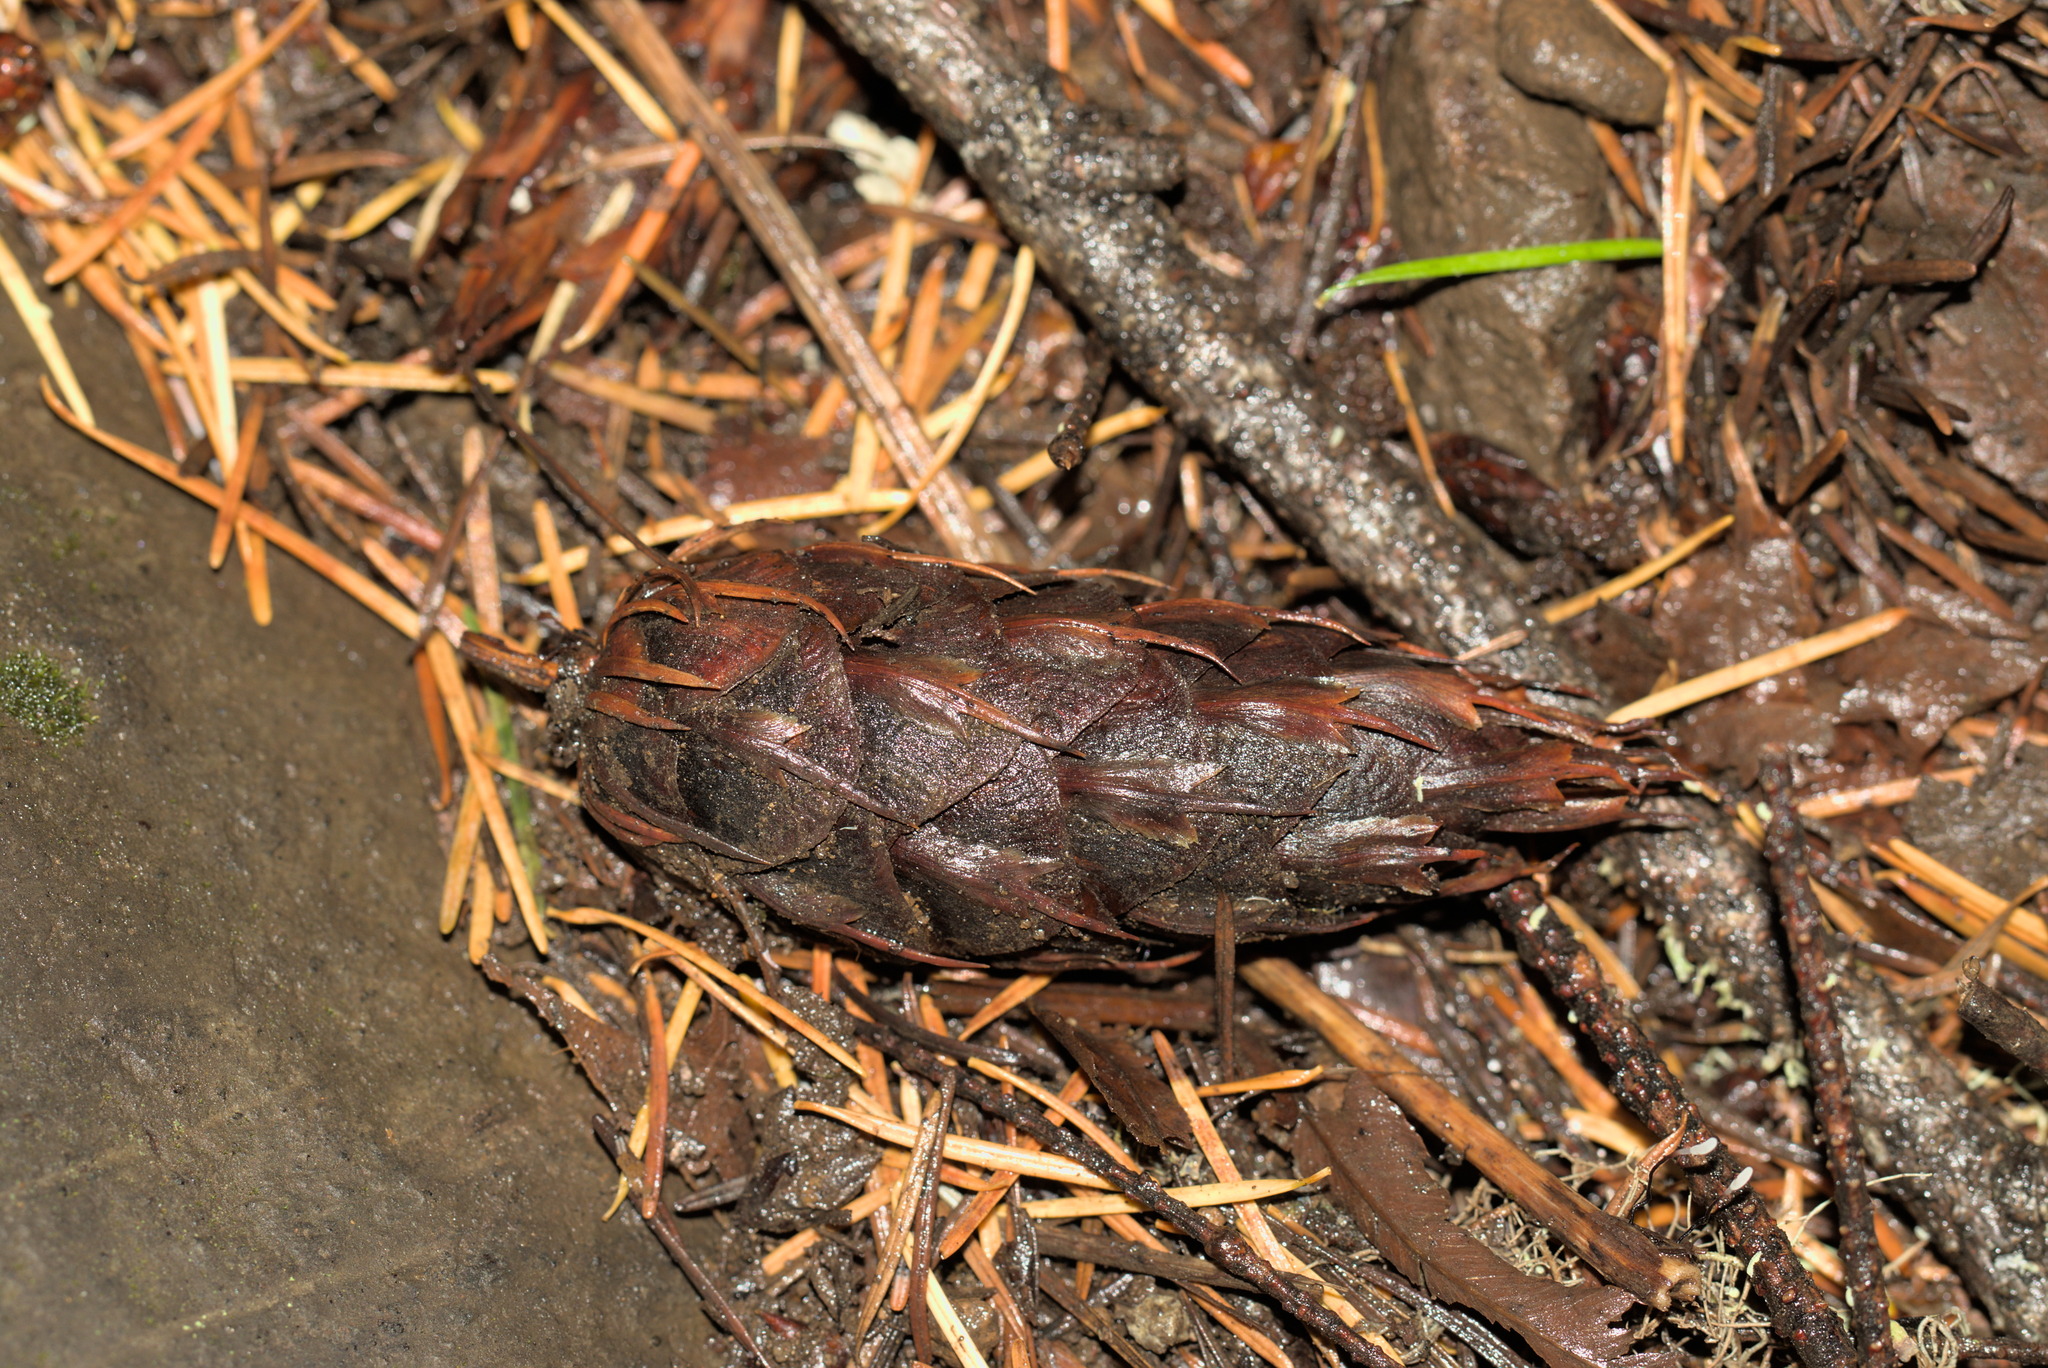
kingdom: Plantae
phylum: Tracheophyta
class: Pinopsida
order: Pinales
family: Pinaceae
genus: Pseudotsuga
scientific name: Pseudotsuga menziesii
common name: Douglas fir
